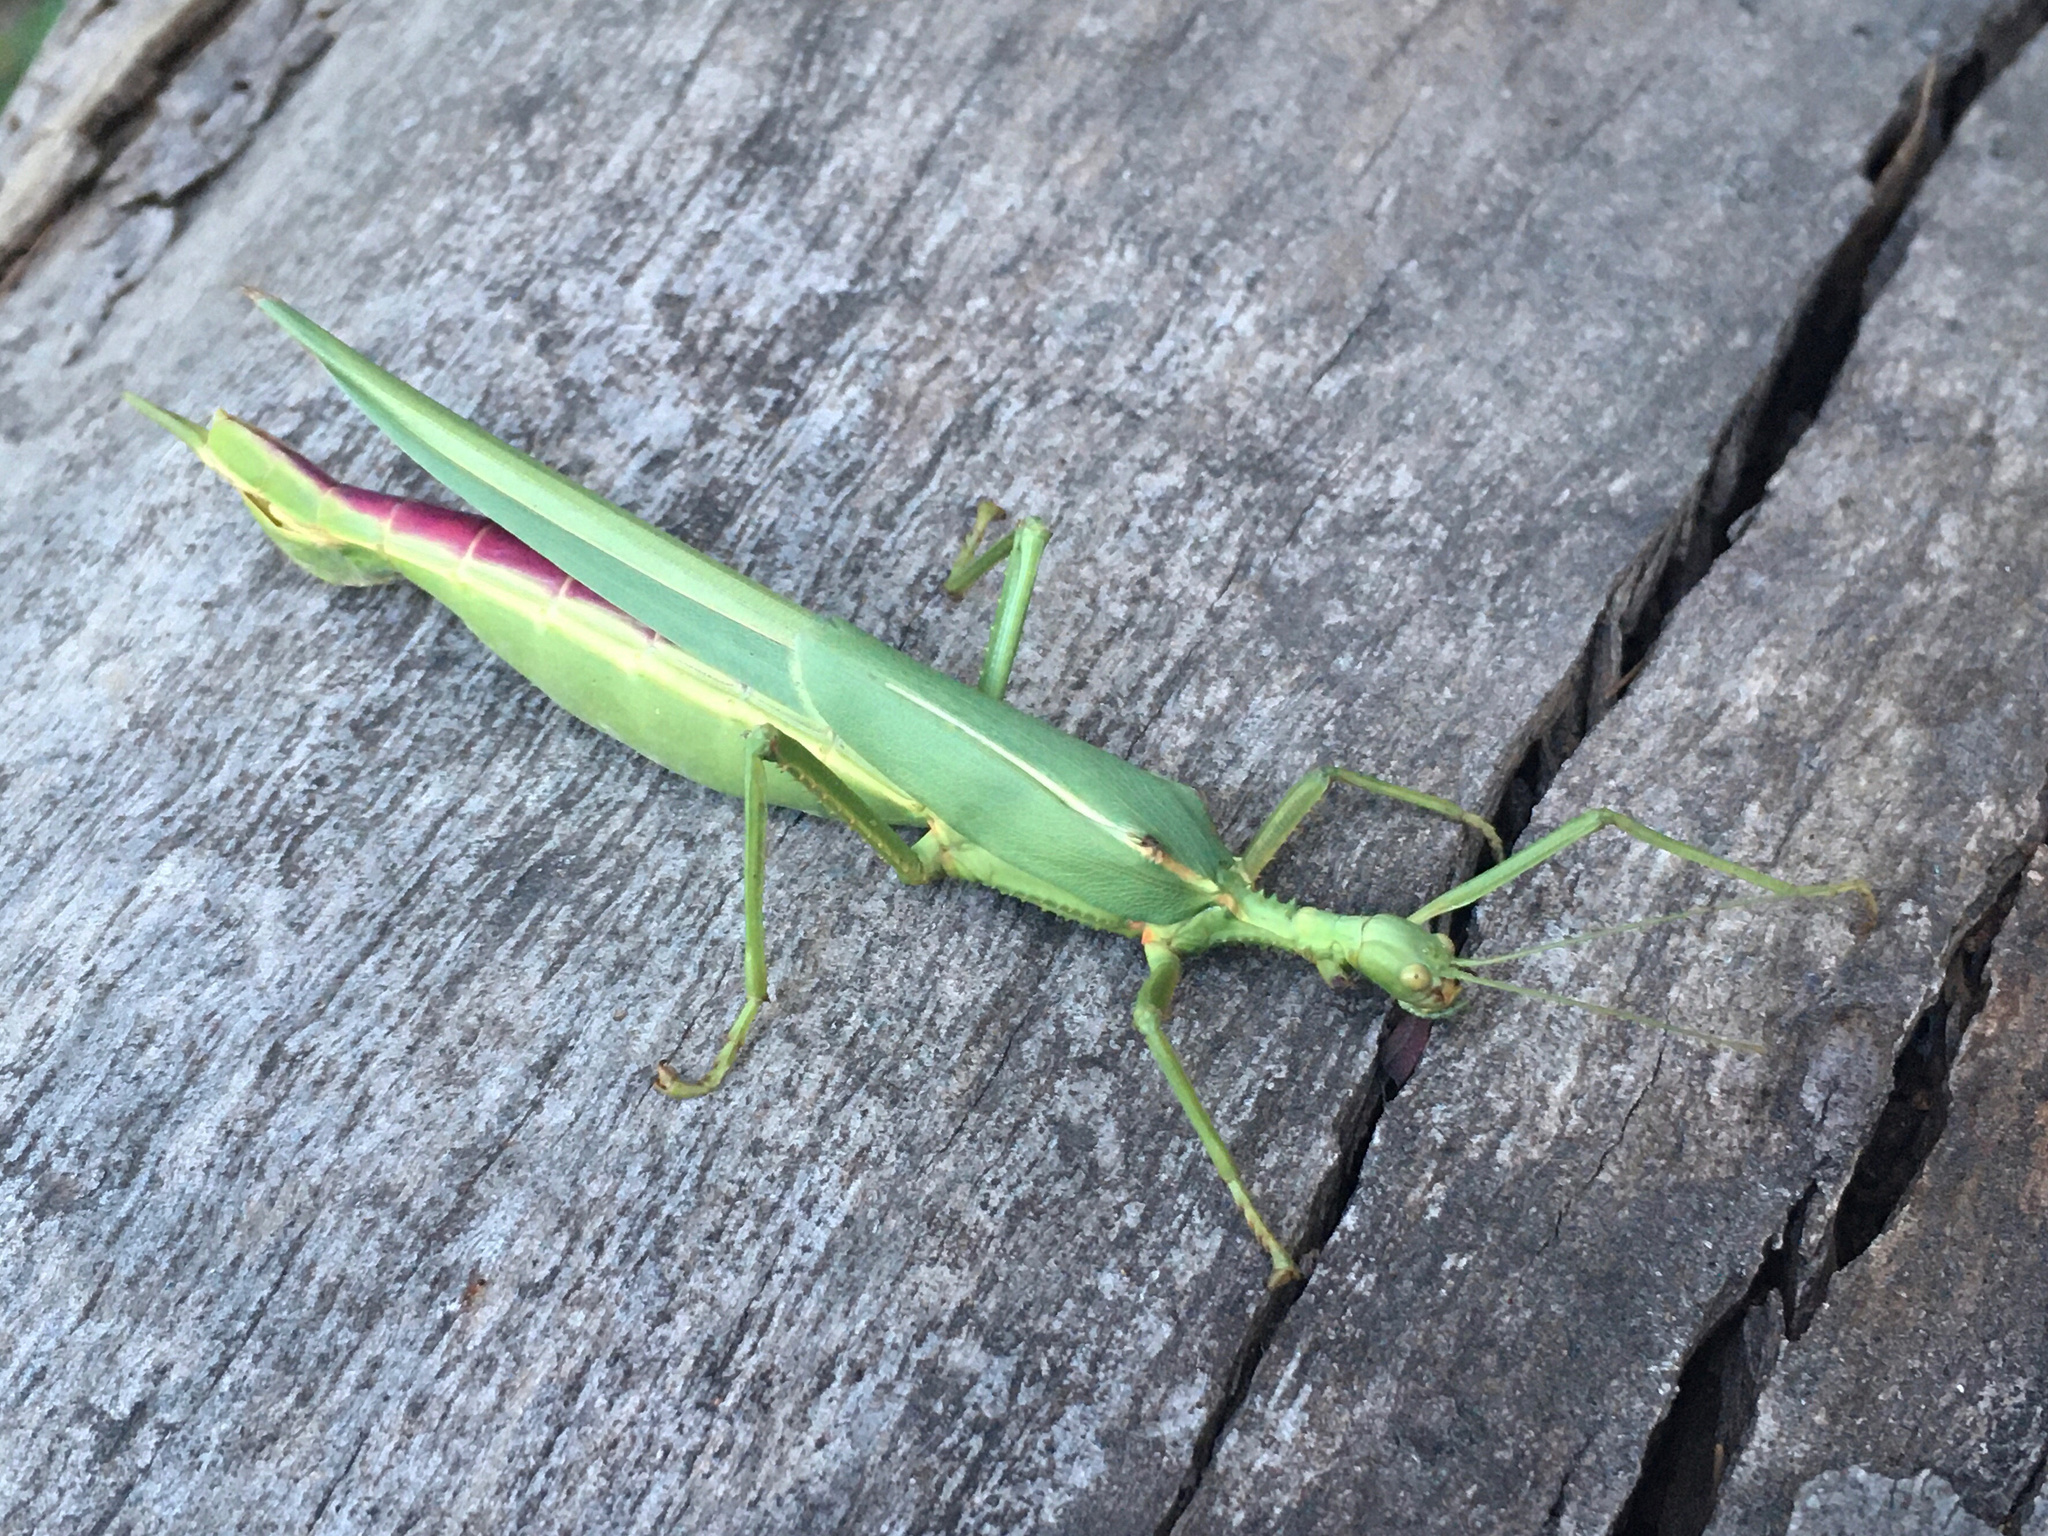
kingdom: Animalia
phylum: Arthropoda
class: Insecta
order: Phasmida
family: Phasmatidae
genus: Podacanthus
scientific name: Podacanthus viridiroseus
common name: Red-winged stick-insect
